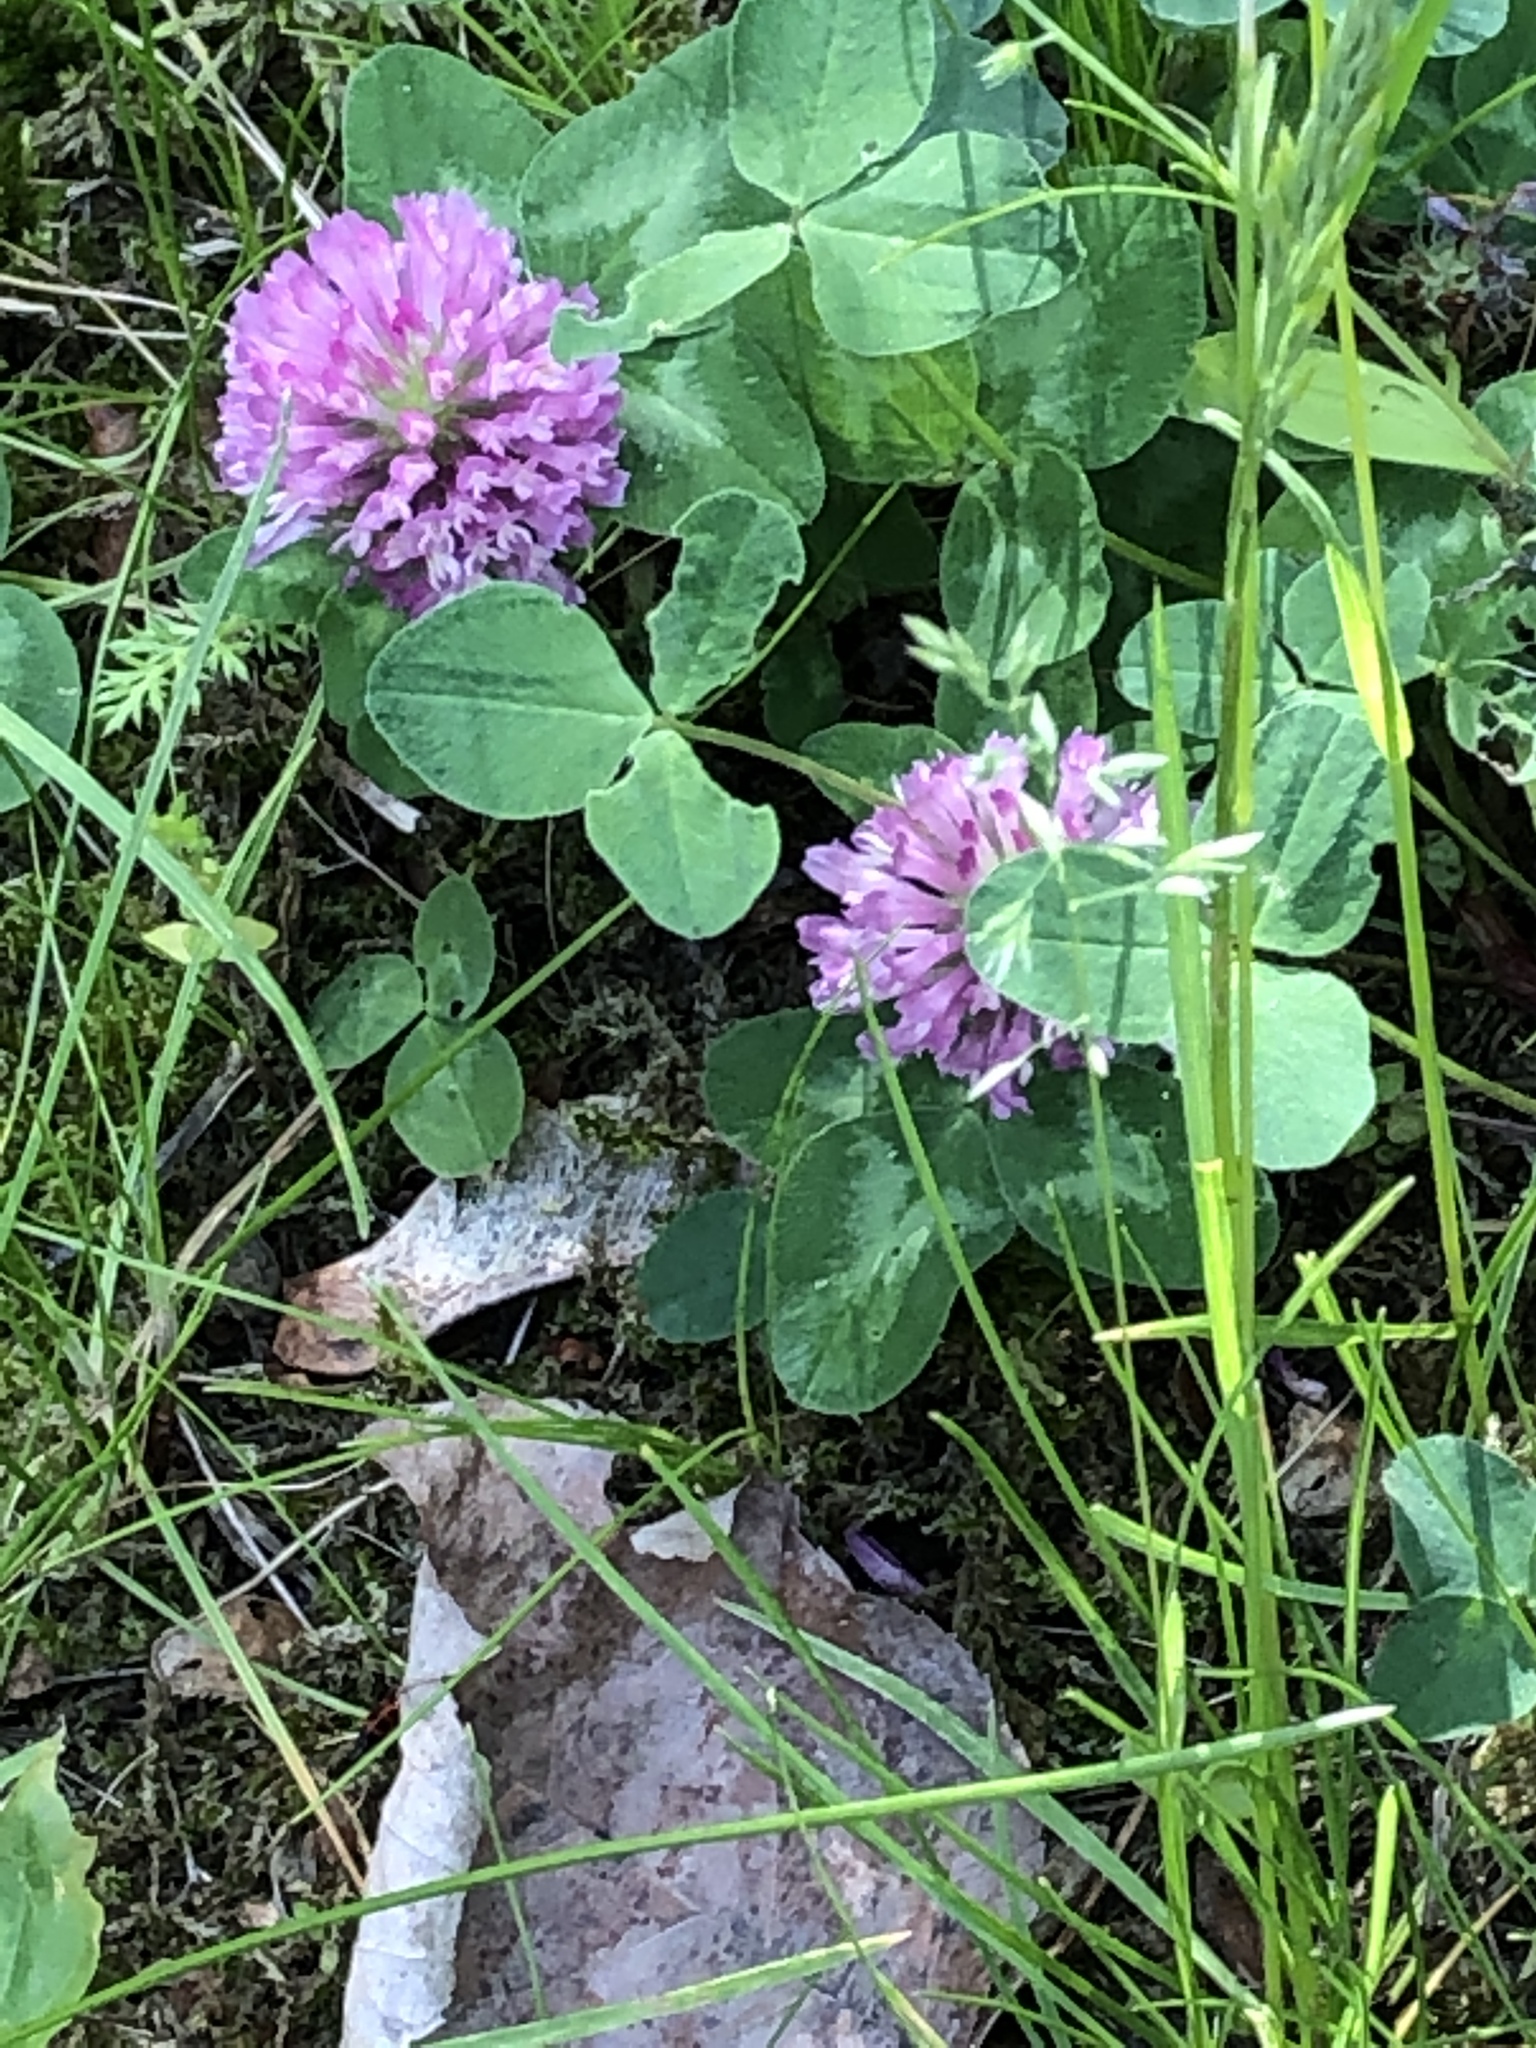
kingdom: Plantae
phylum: Tracheophyta
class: Magnoliopsida
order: Fabales
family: Fabaceae
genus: Trifolium
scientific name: Trifolium pratense
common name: Red clover
